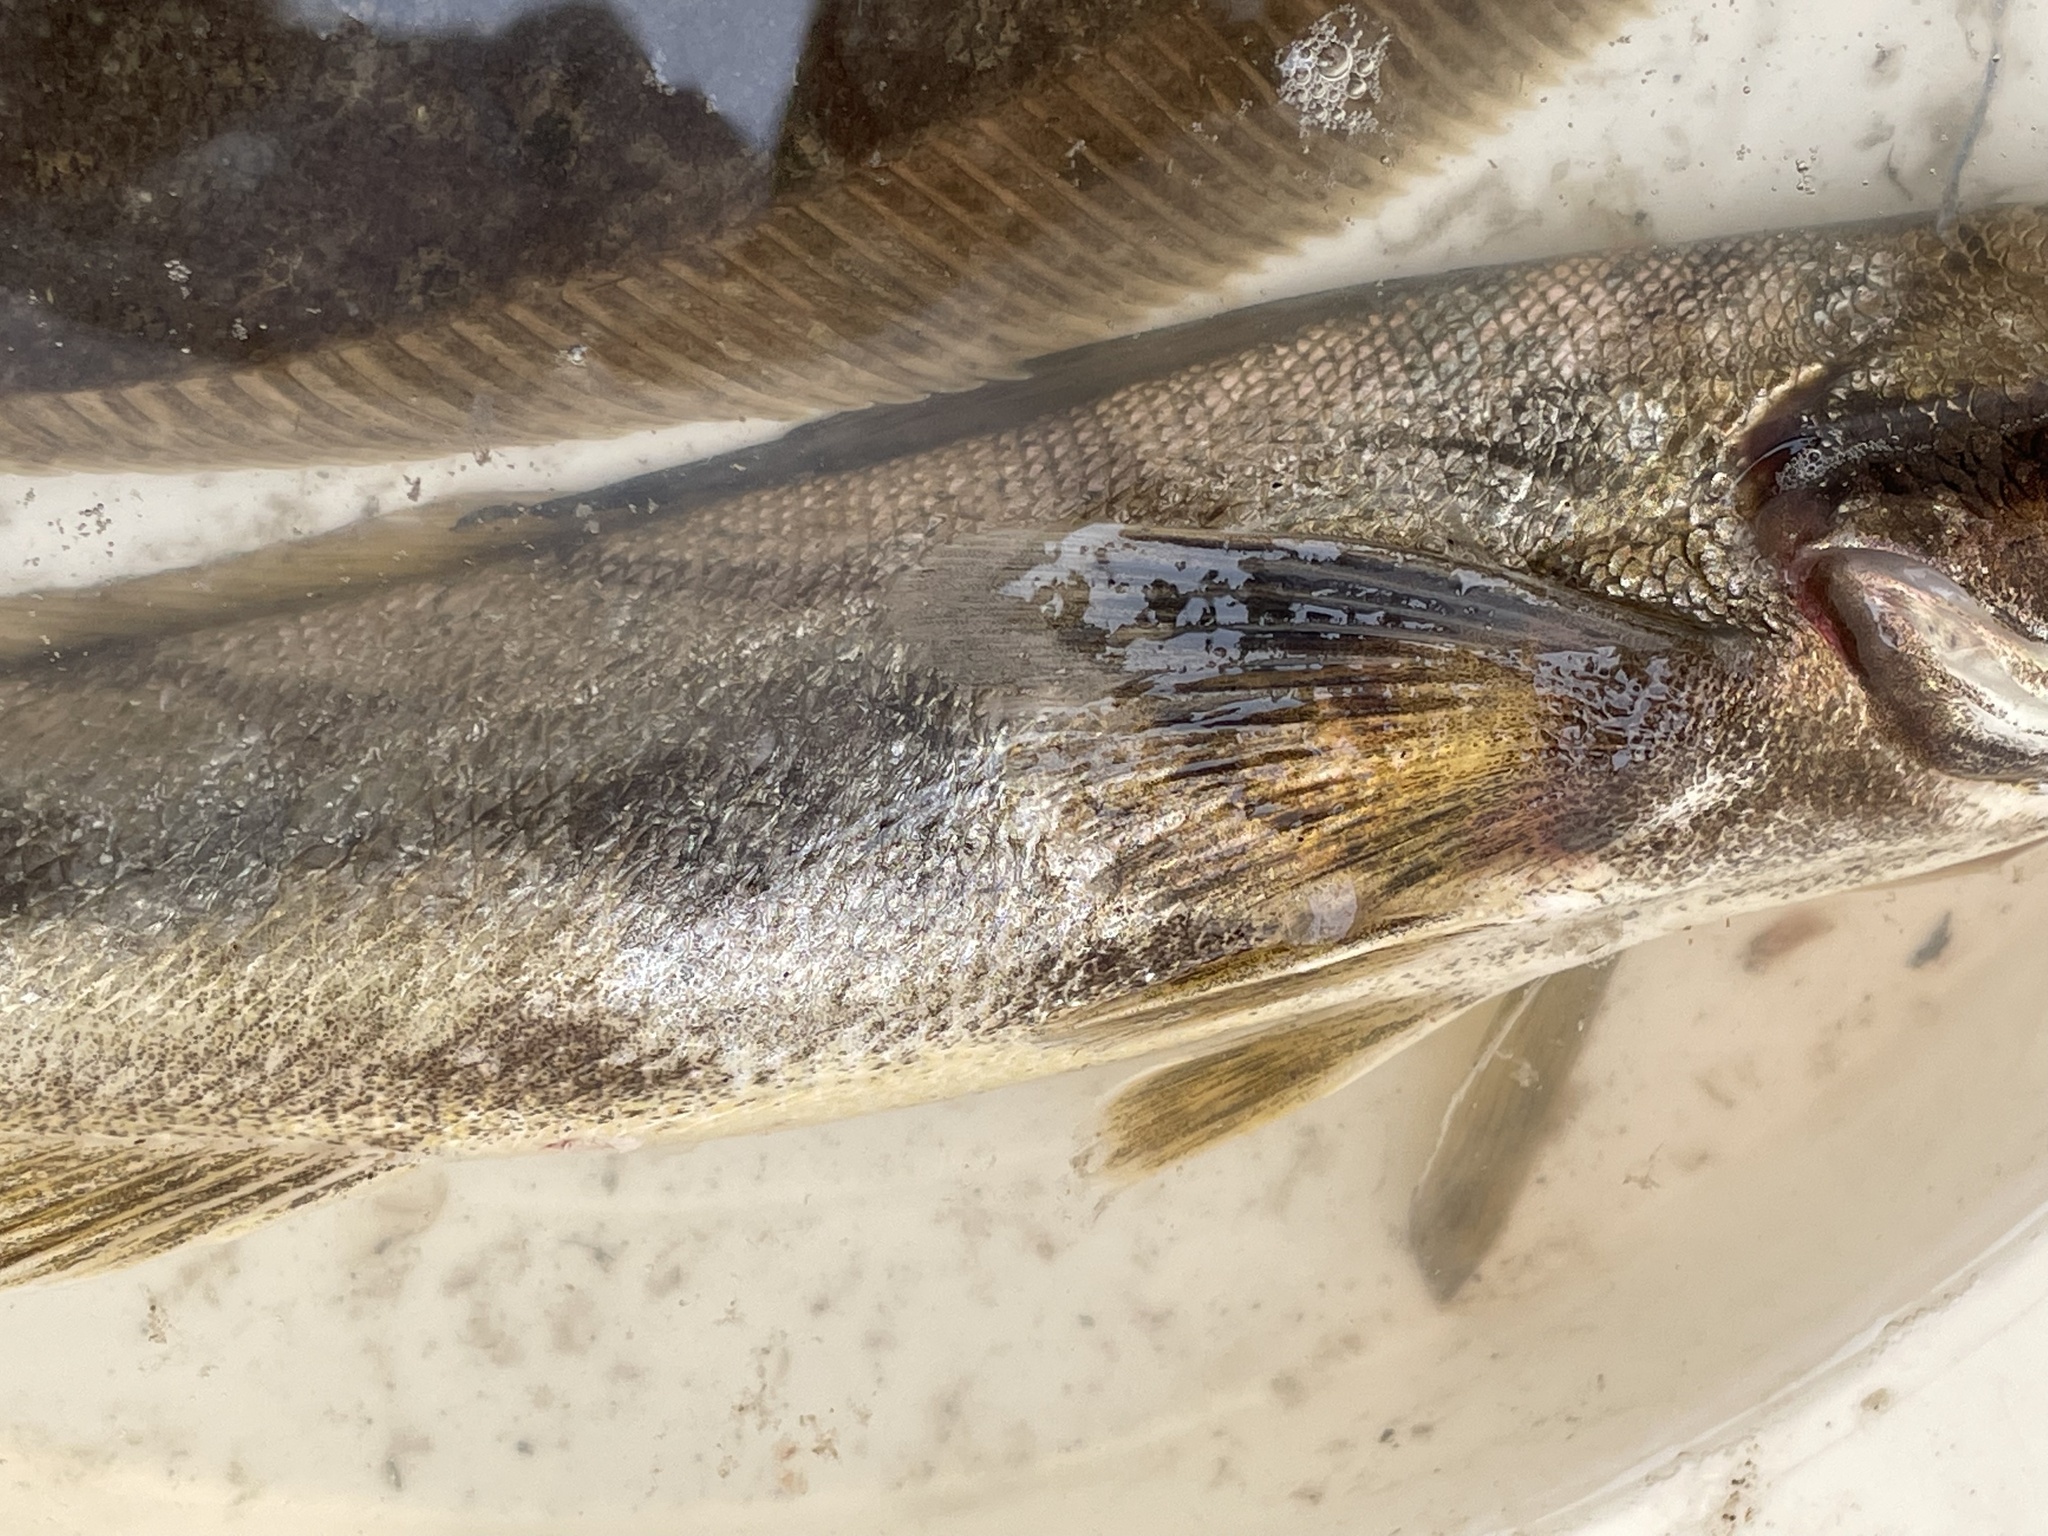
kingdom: Animalia
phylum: Chordata
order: Perciformes
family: Sciaenidae
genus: Menticirrhus
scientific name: Menticirrhus saxatilis
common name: Kingfish
